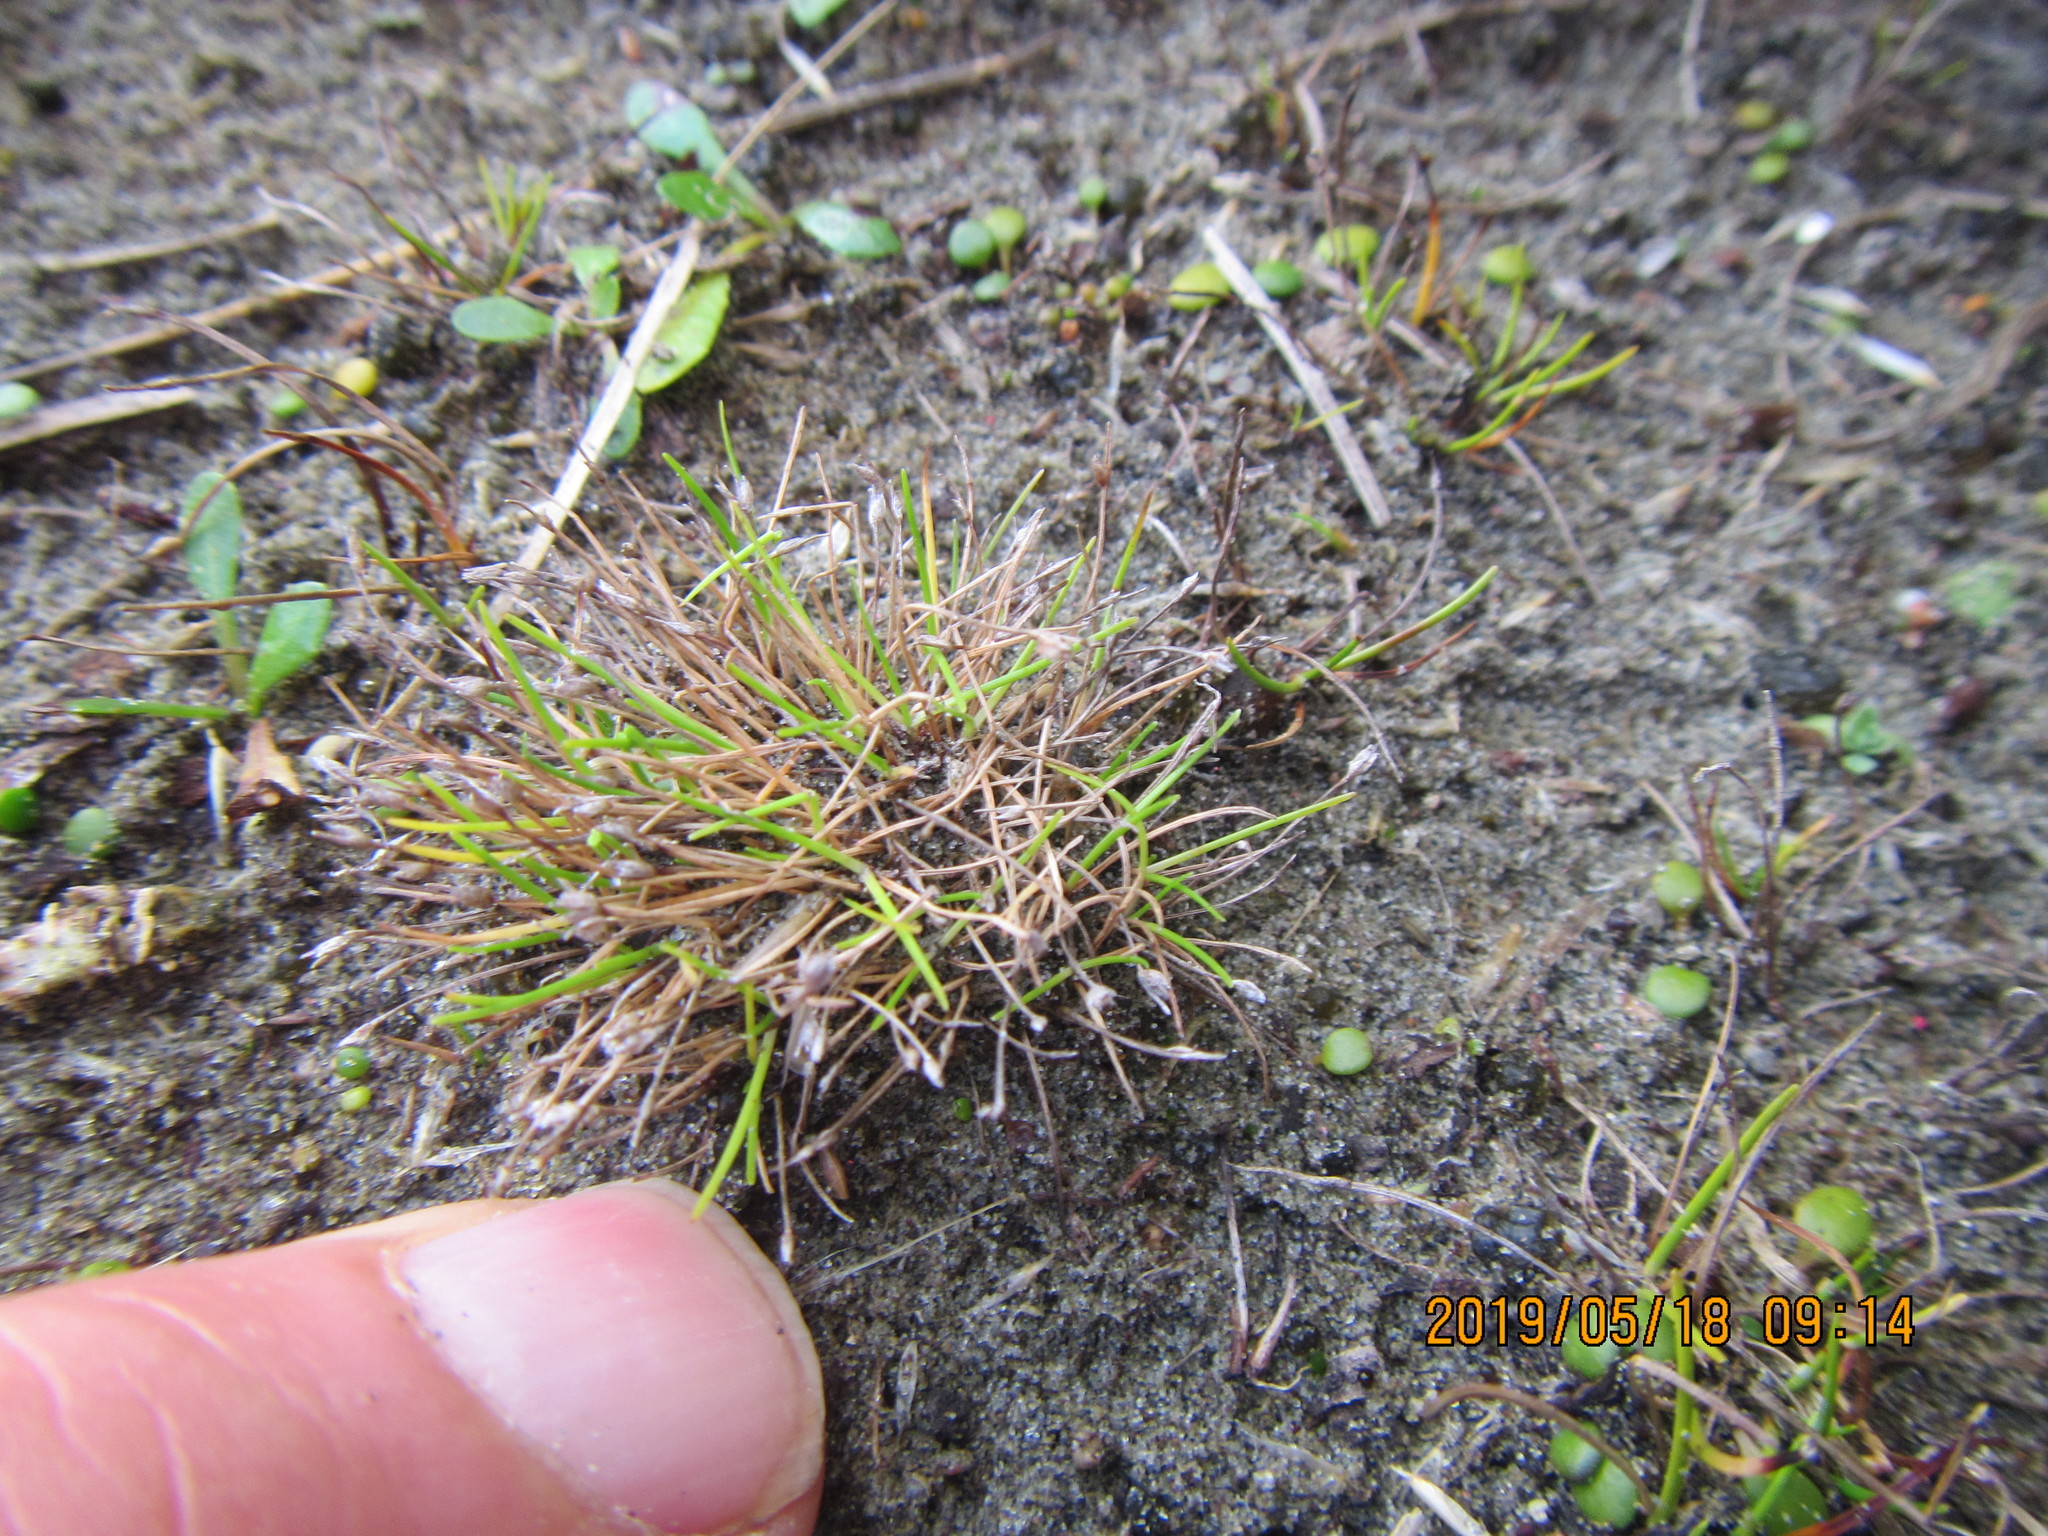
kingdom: Plantae
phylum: Tracheophyta
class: Liliopsida
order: Poales
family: Cyperaceae
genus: Isolepis
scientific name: Isolepis cernua
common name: Slender club-rush
